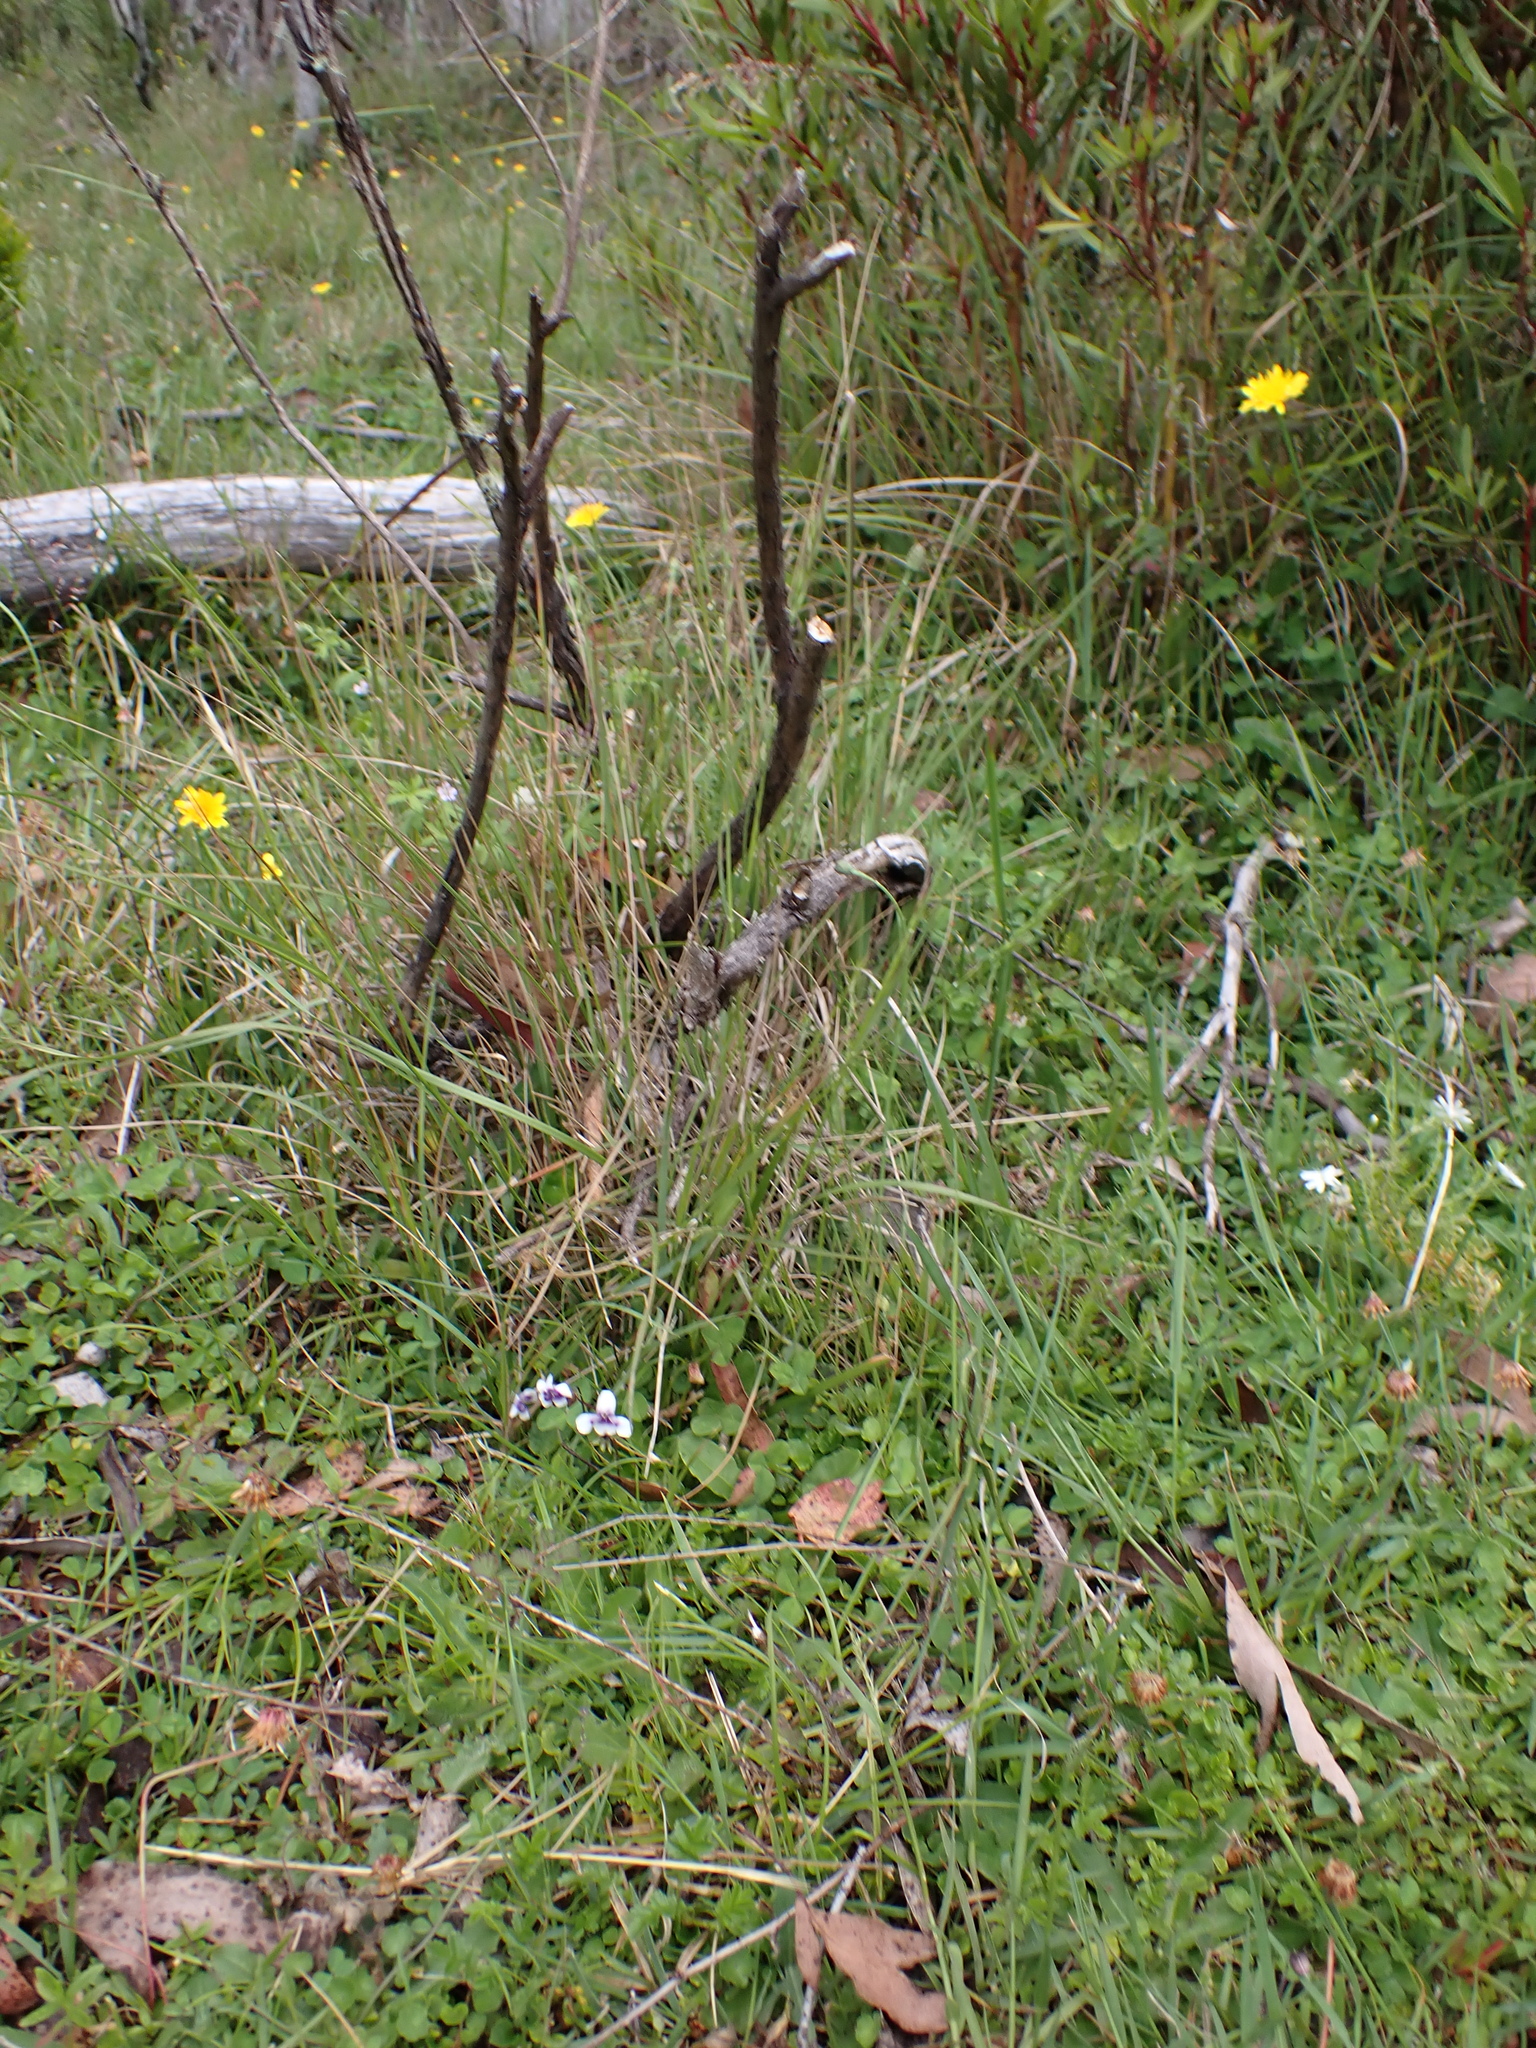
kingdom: Plantae
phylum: Tracheophyta
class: Magnoliopsida
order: Malpighiales
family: Violaceae
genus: Viola
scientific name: Viola hederacea
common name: Australian violet
